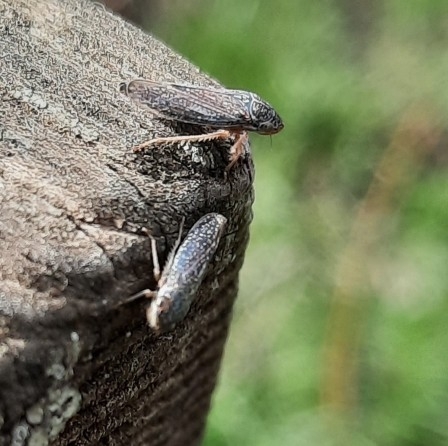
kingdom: Animalia
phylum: Arthropoda
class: Insecta
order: Hemiptera
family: Cicadellidae
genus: Graphocephala
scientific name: Graphocephala confluens
